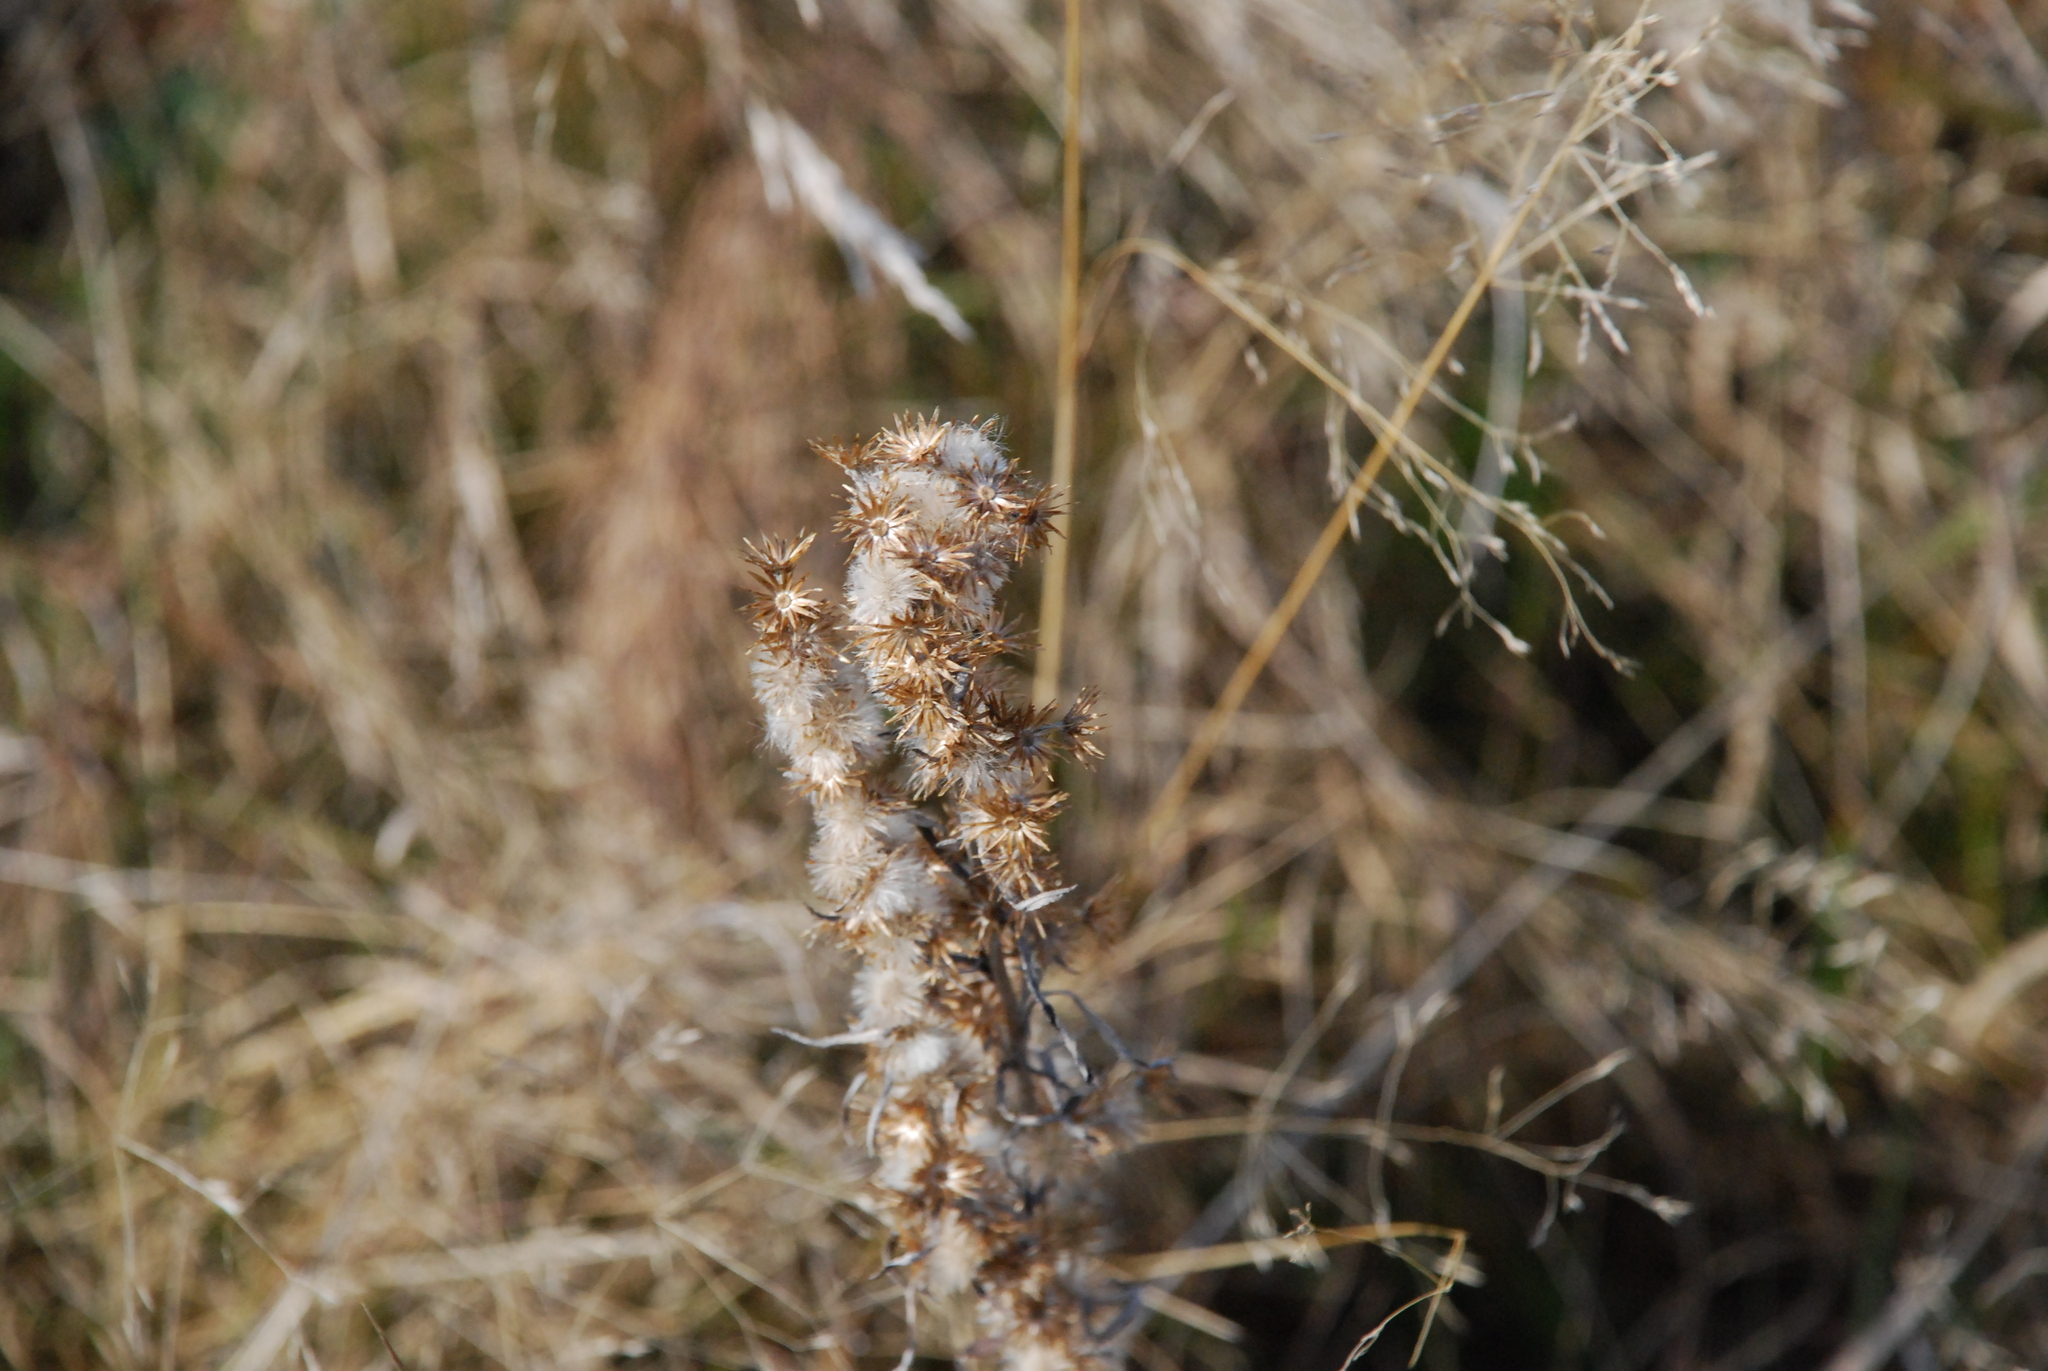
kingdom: Plantae
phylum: Tracheophyta
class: Magnoliopsida
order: Asterales
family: Asteraceae
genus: Omalotheca
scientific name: Omalotheca sylvatica
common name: Heath cudweed
